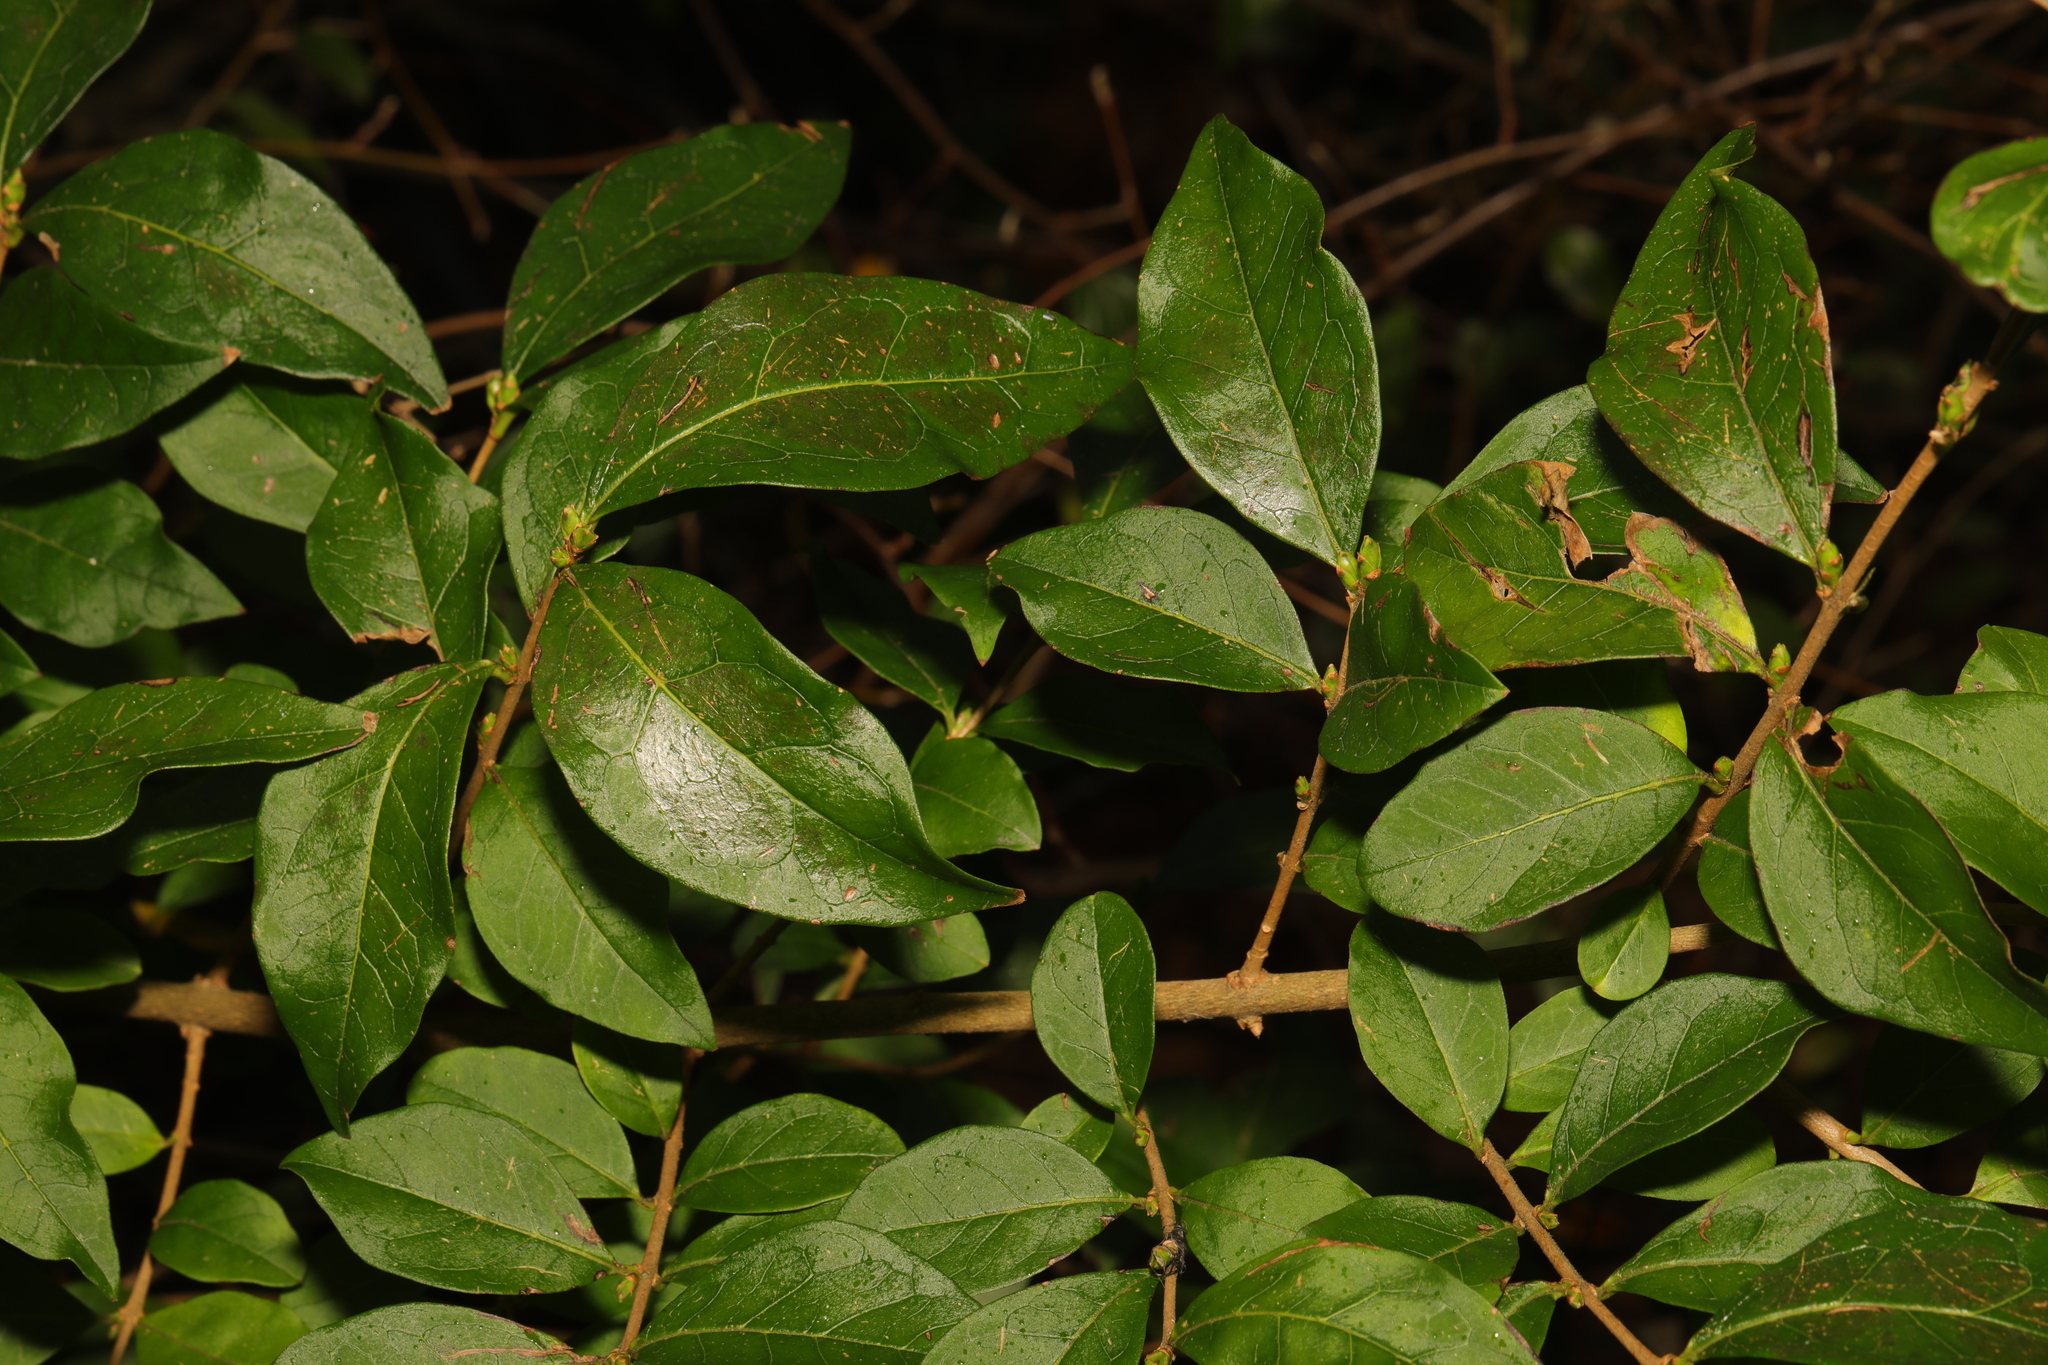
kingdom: Plantae
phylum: Tracheophyta
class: Magnoliopsida
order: Lamiales
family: Oleaceae
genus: Ligustrum
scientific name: Ligustrum ovalifolium
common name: California privet
